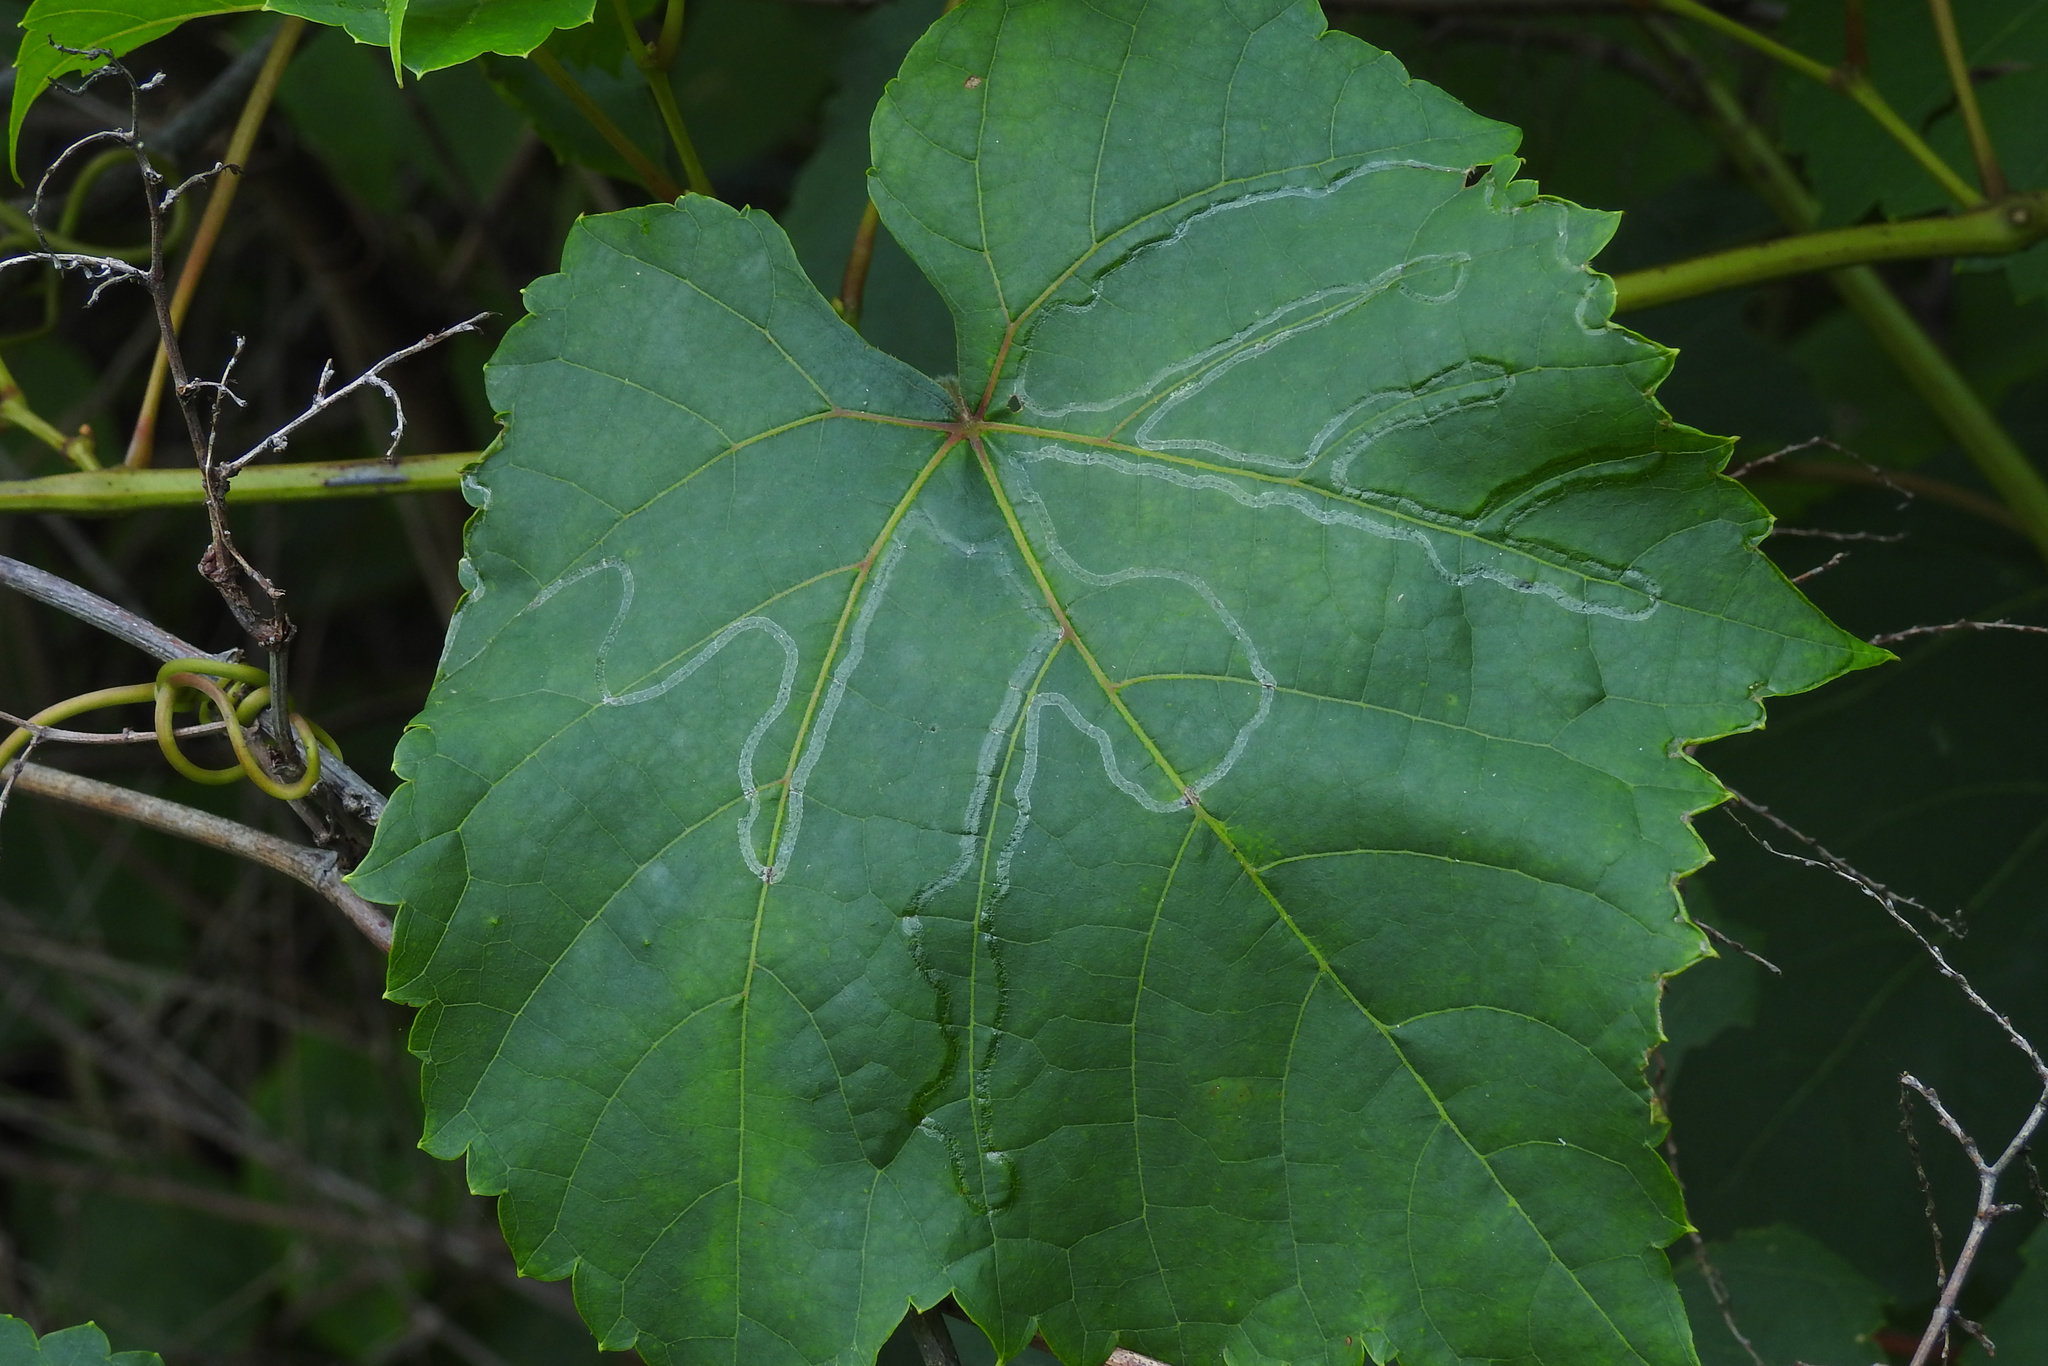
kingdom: Animalia
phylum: Arthropoda
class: Insecta
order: Lepidoptera
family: Gracillariidae
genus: Phyllocnistis
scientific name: Phyllocnistis vitegenella
